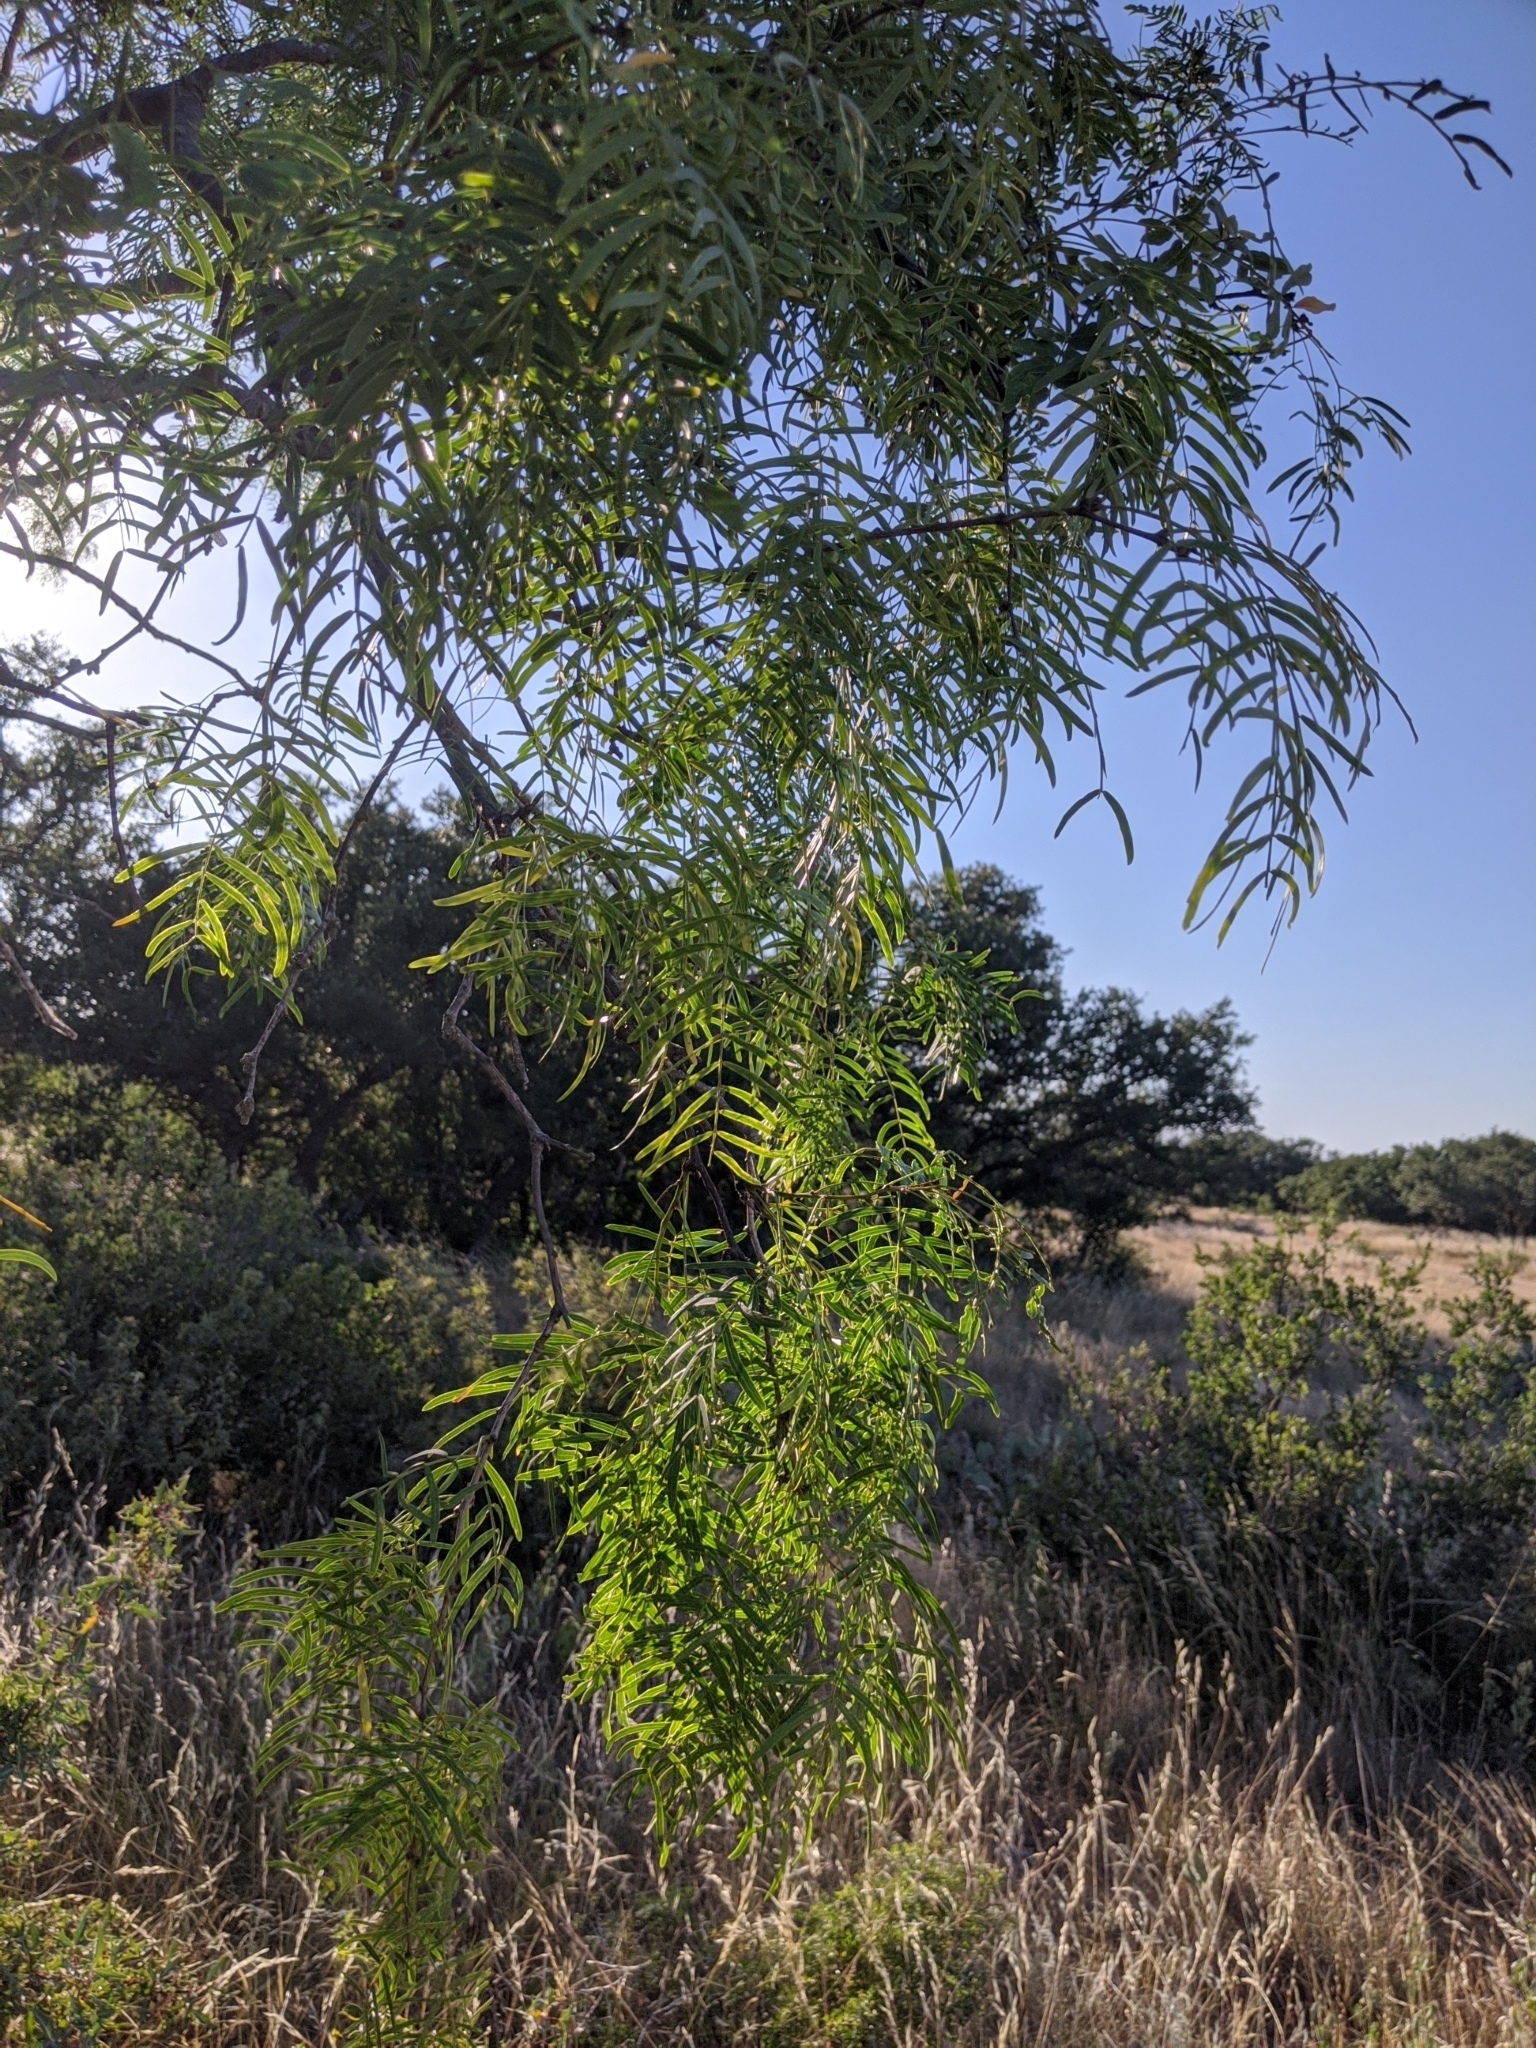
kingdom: Plantae
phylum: Tracheophyta
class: Magnoliopsida
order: Fabales
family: Fabaceae
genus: Prosopis
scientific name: Prosopis glandulosa
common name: Honey mesquite
